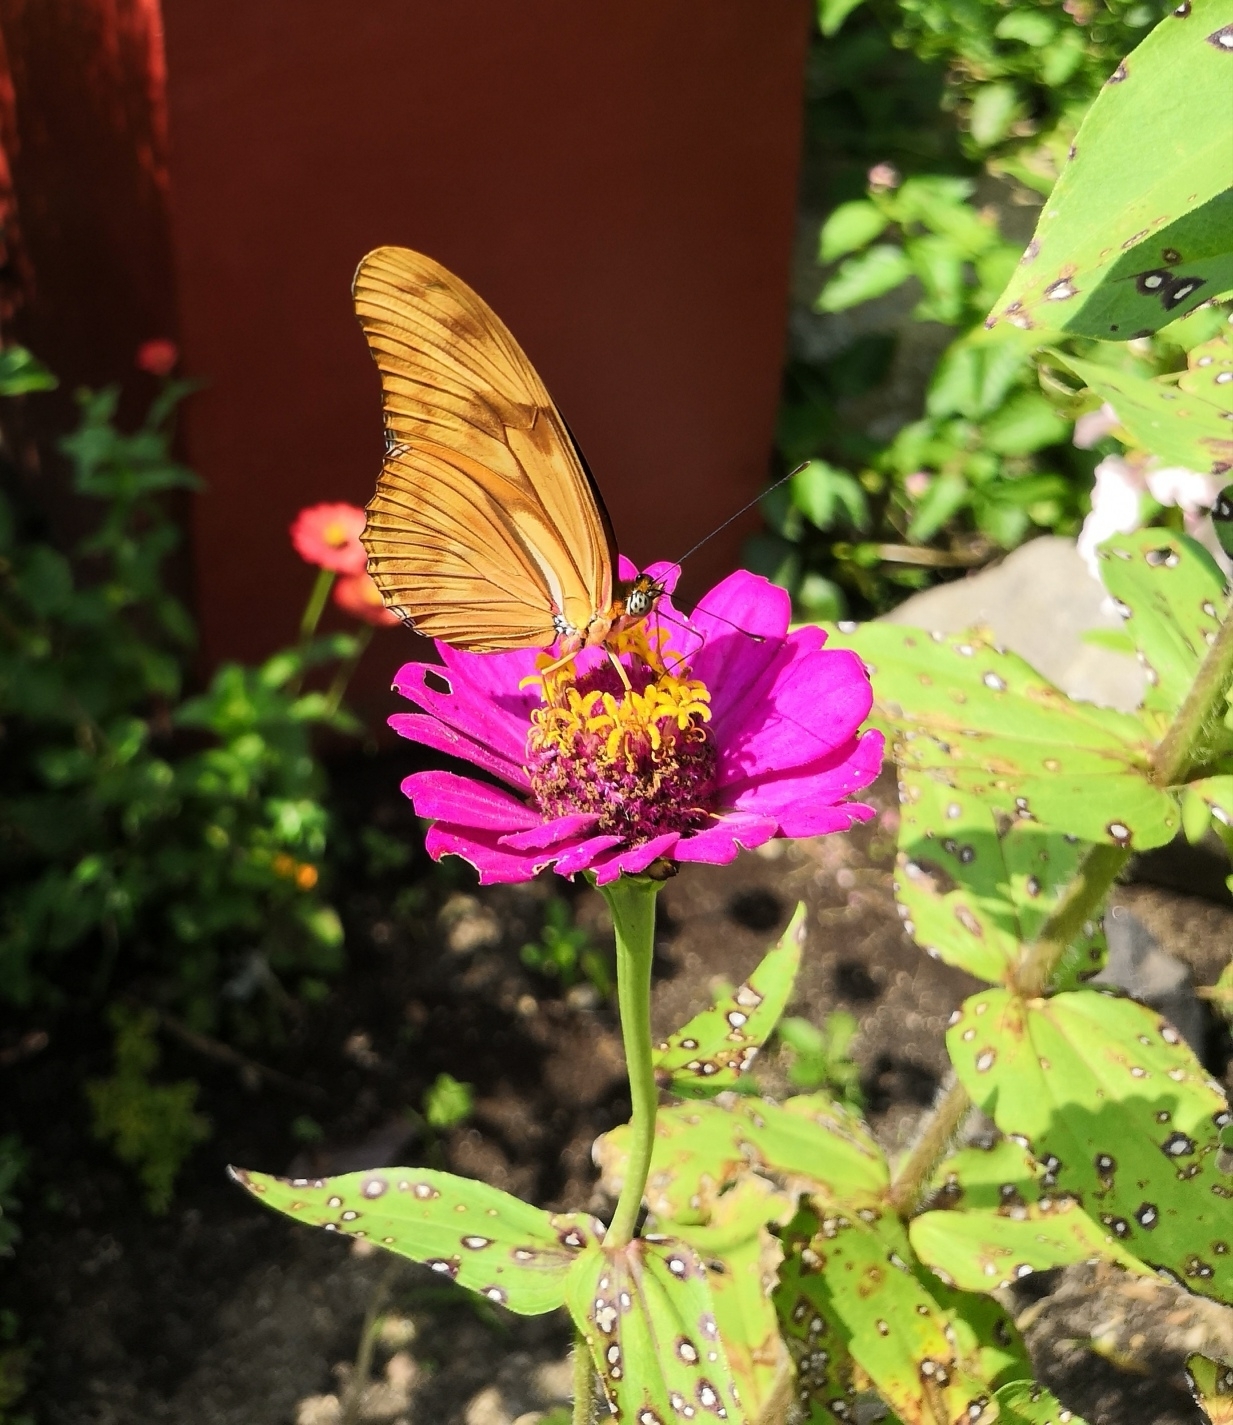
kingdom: Animalia
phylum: Arthropoda
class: Insecta
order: Lepidoptera
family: Nymphalidae
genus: Dryas
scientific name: Dryas iulia
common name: Flambeau
